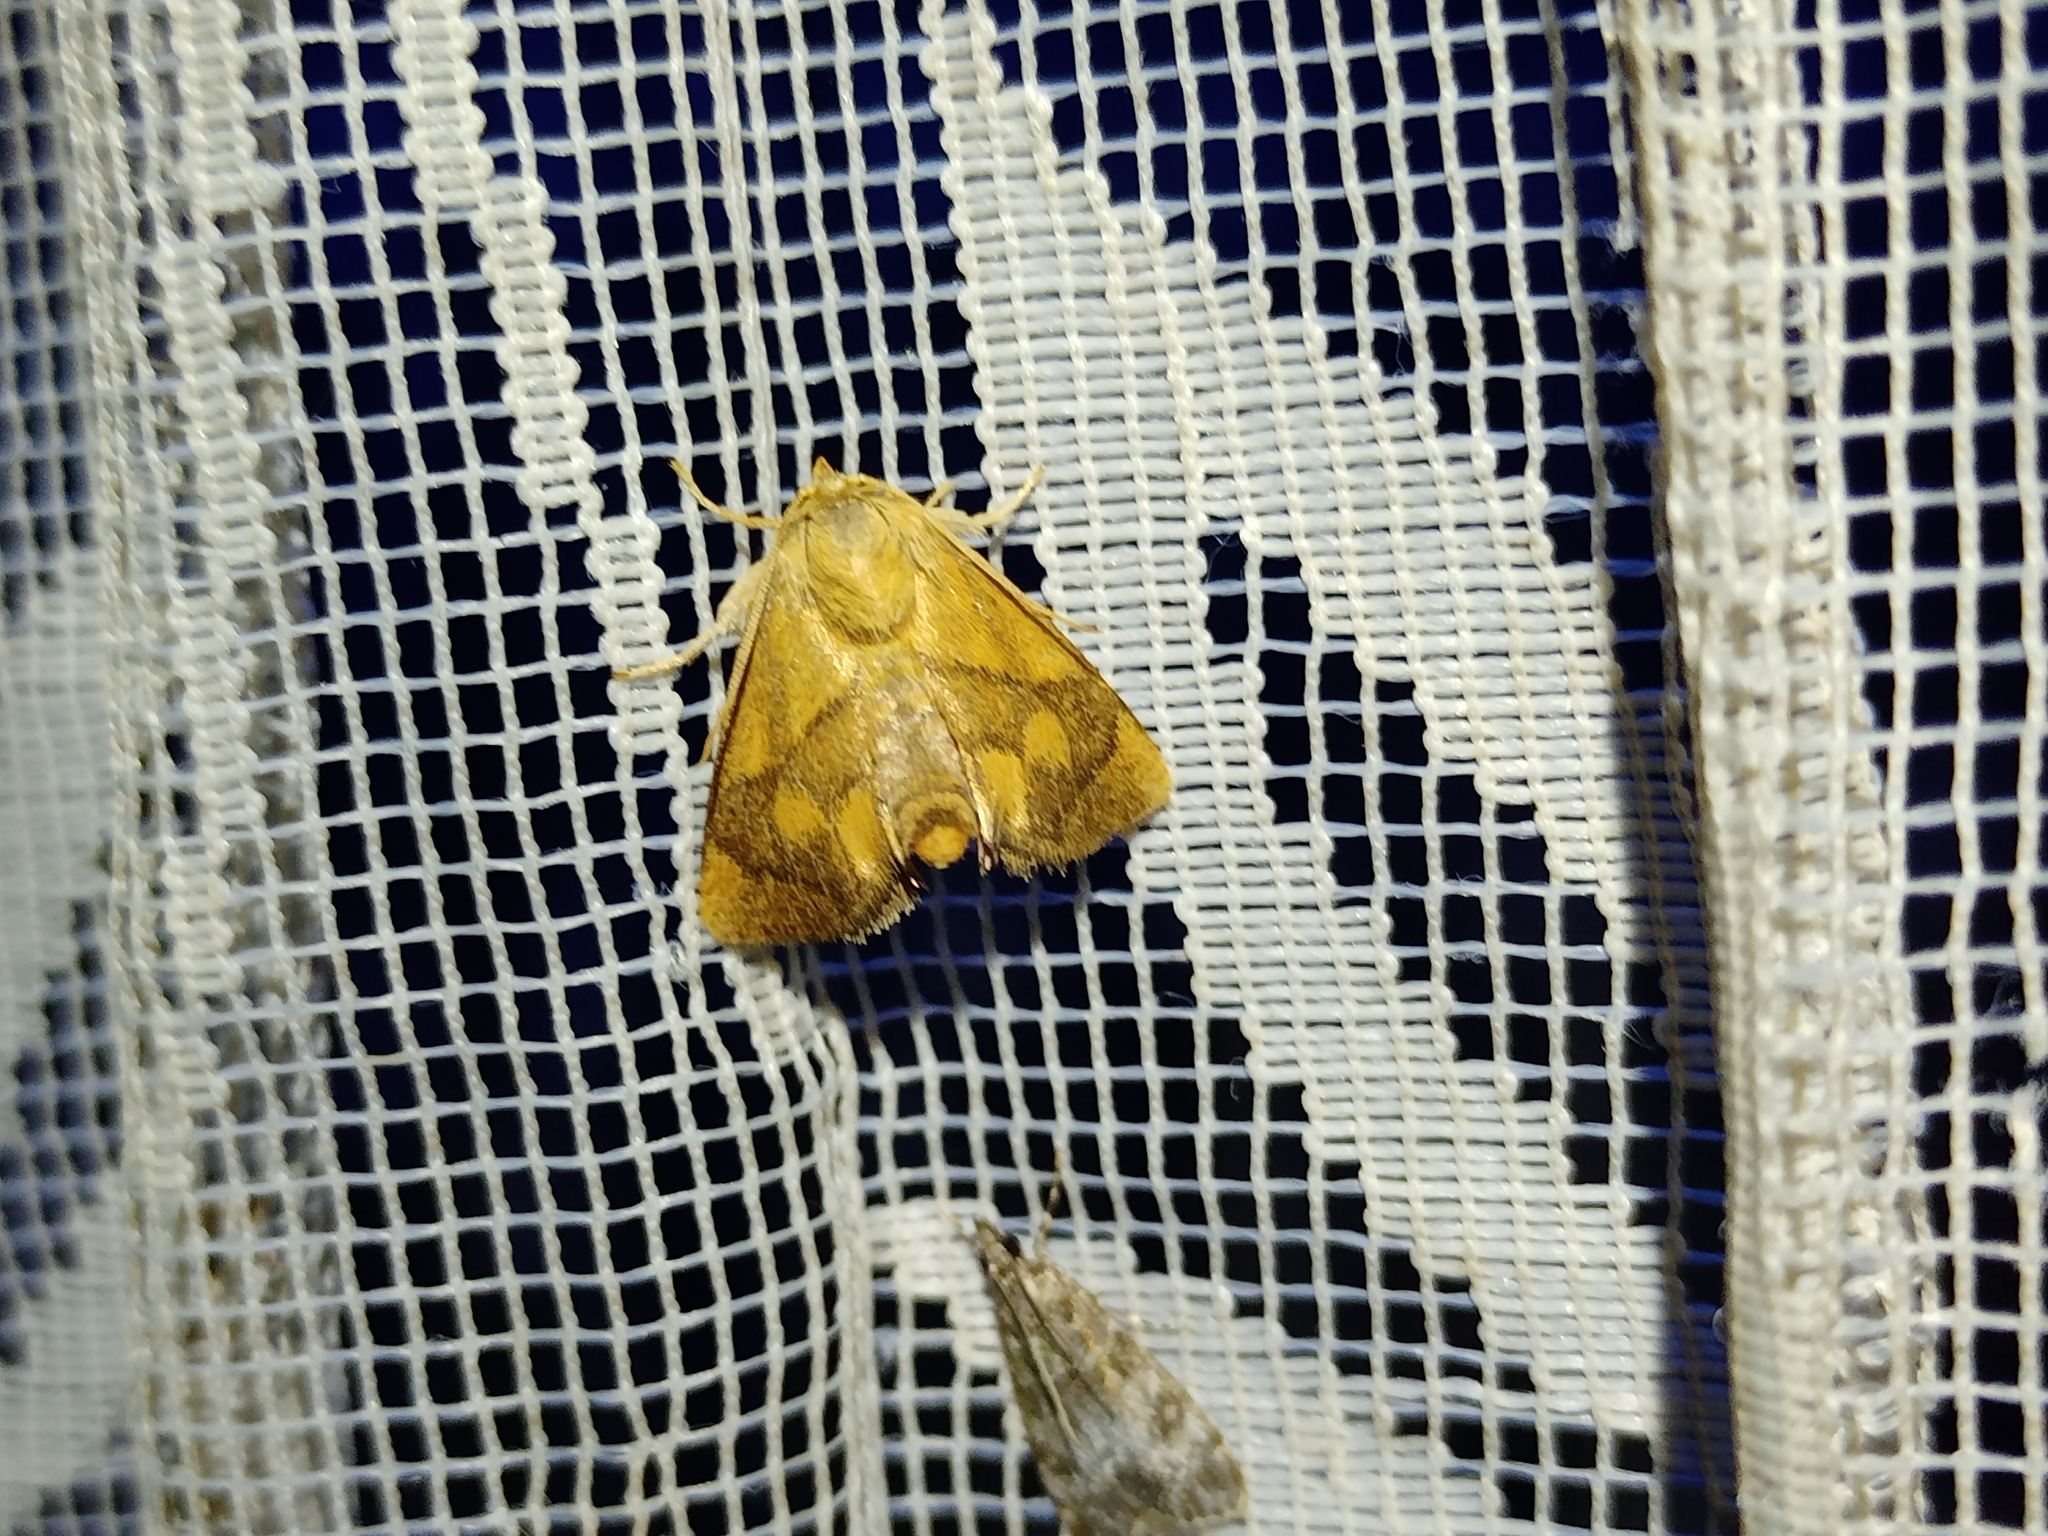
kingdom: Animalia
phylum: Arthropoda
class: Insecta
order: Lepidoptera
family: Limacodidae
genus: Apoda
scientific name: Apoda limacodes
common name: Festoon
